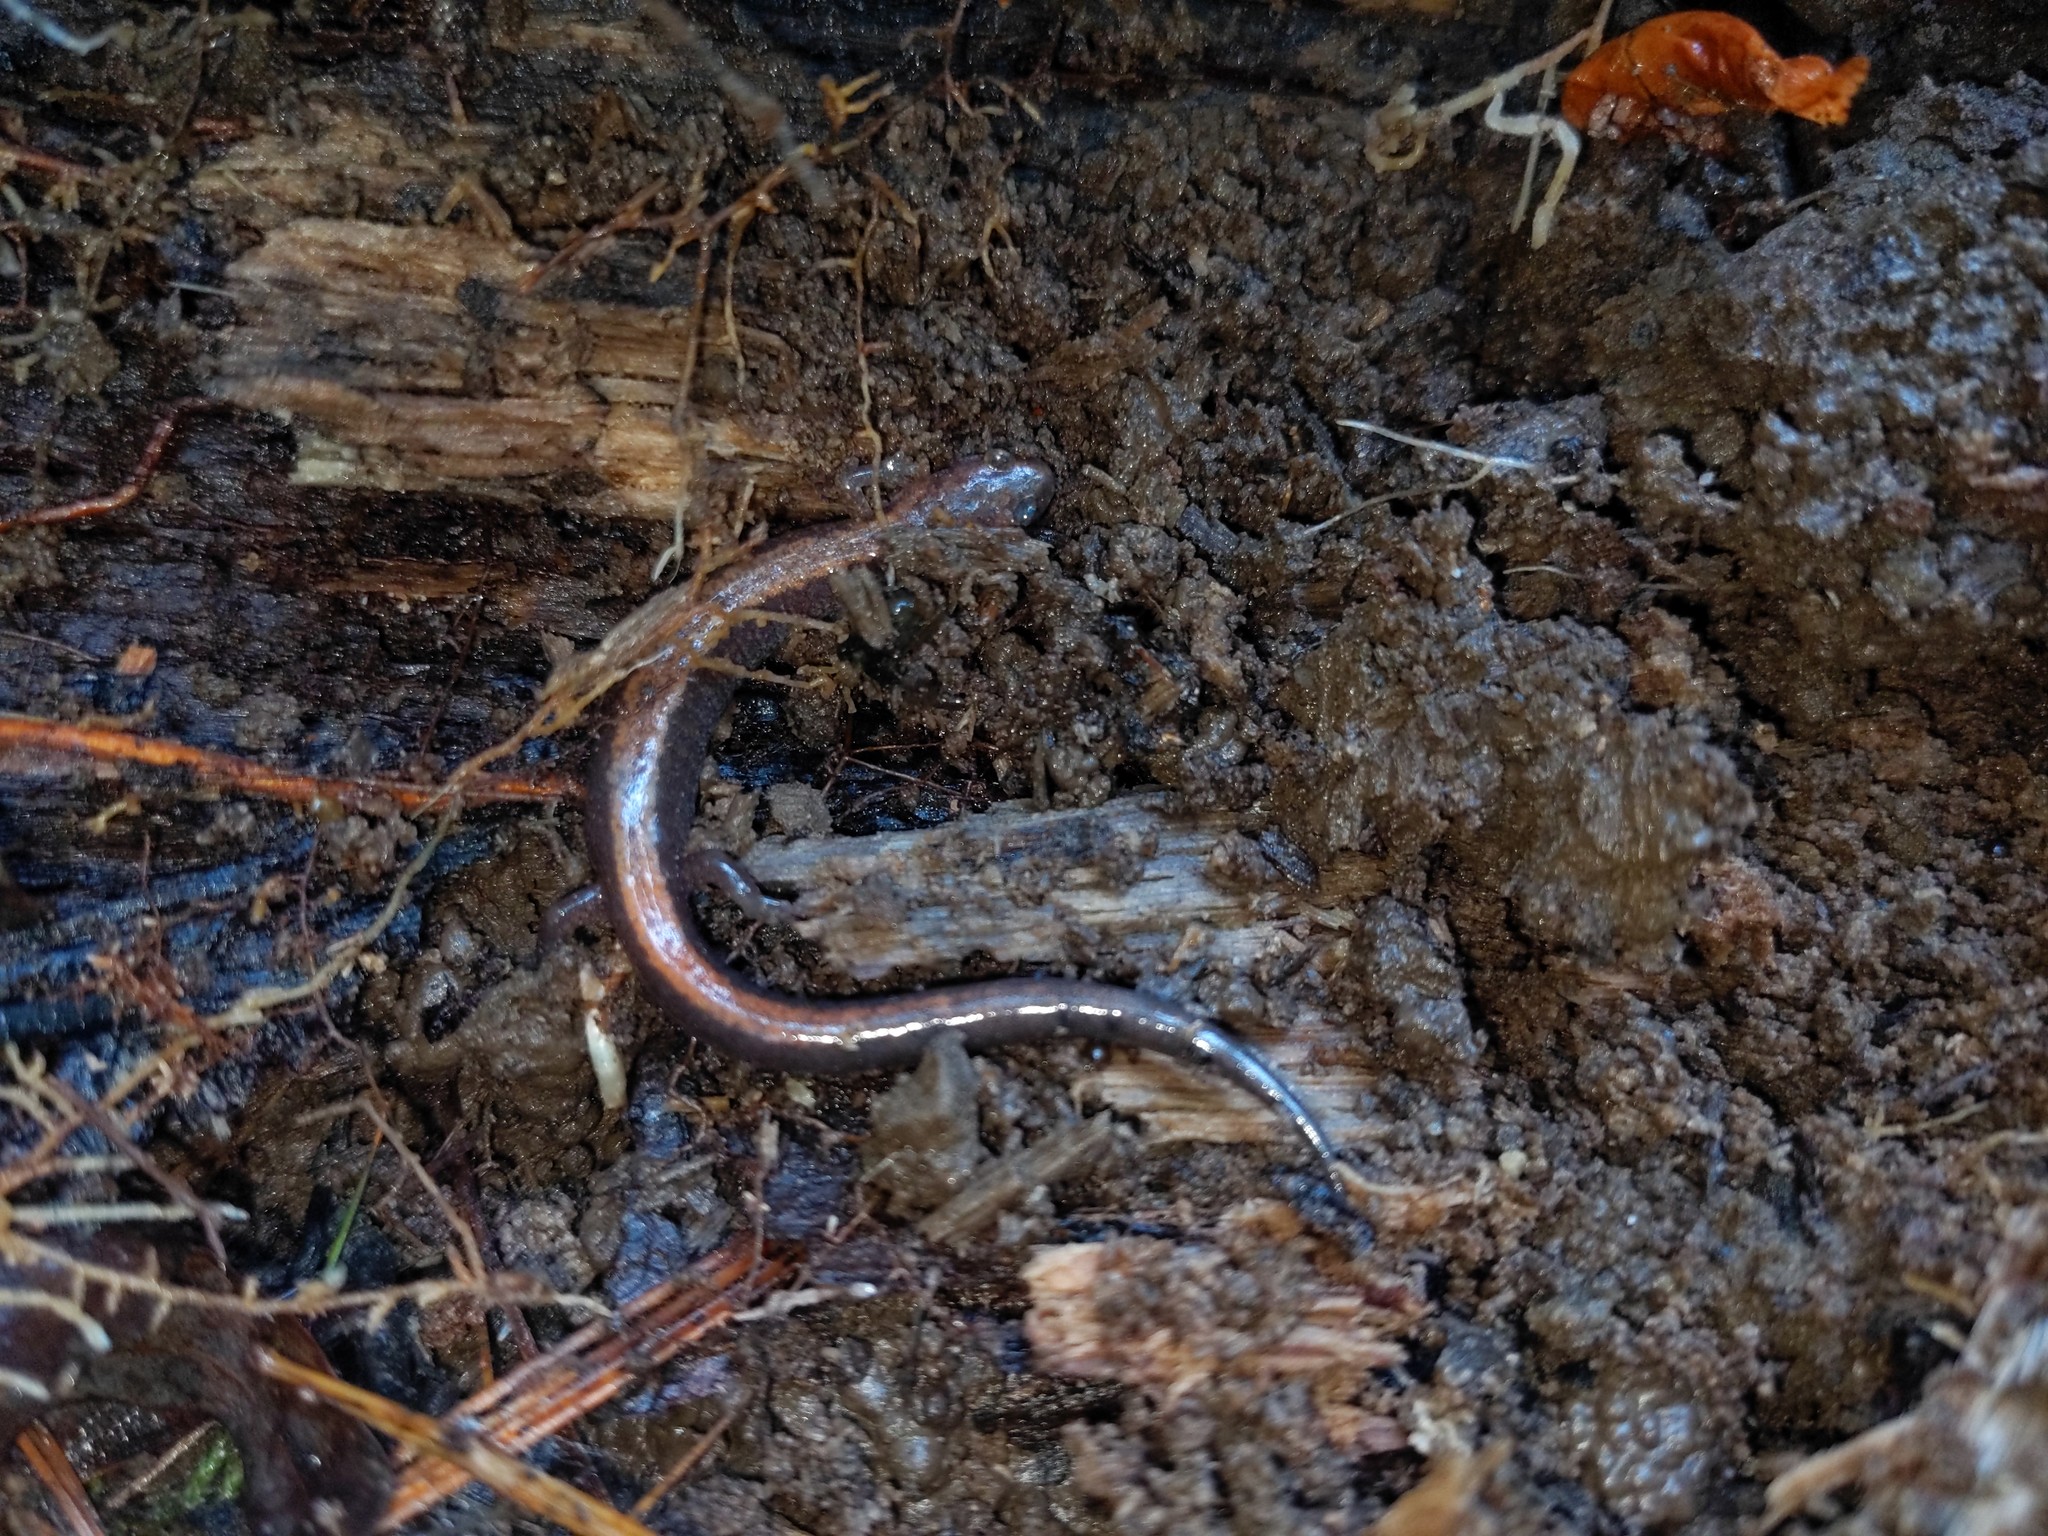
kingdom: Animalia
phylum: Chordata
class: Amphibia
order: Caudata
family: Plethodontidae
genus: Plethodon
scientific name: Plethodon cinereus
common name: Redback salamander
